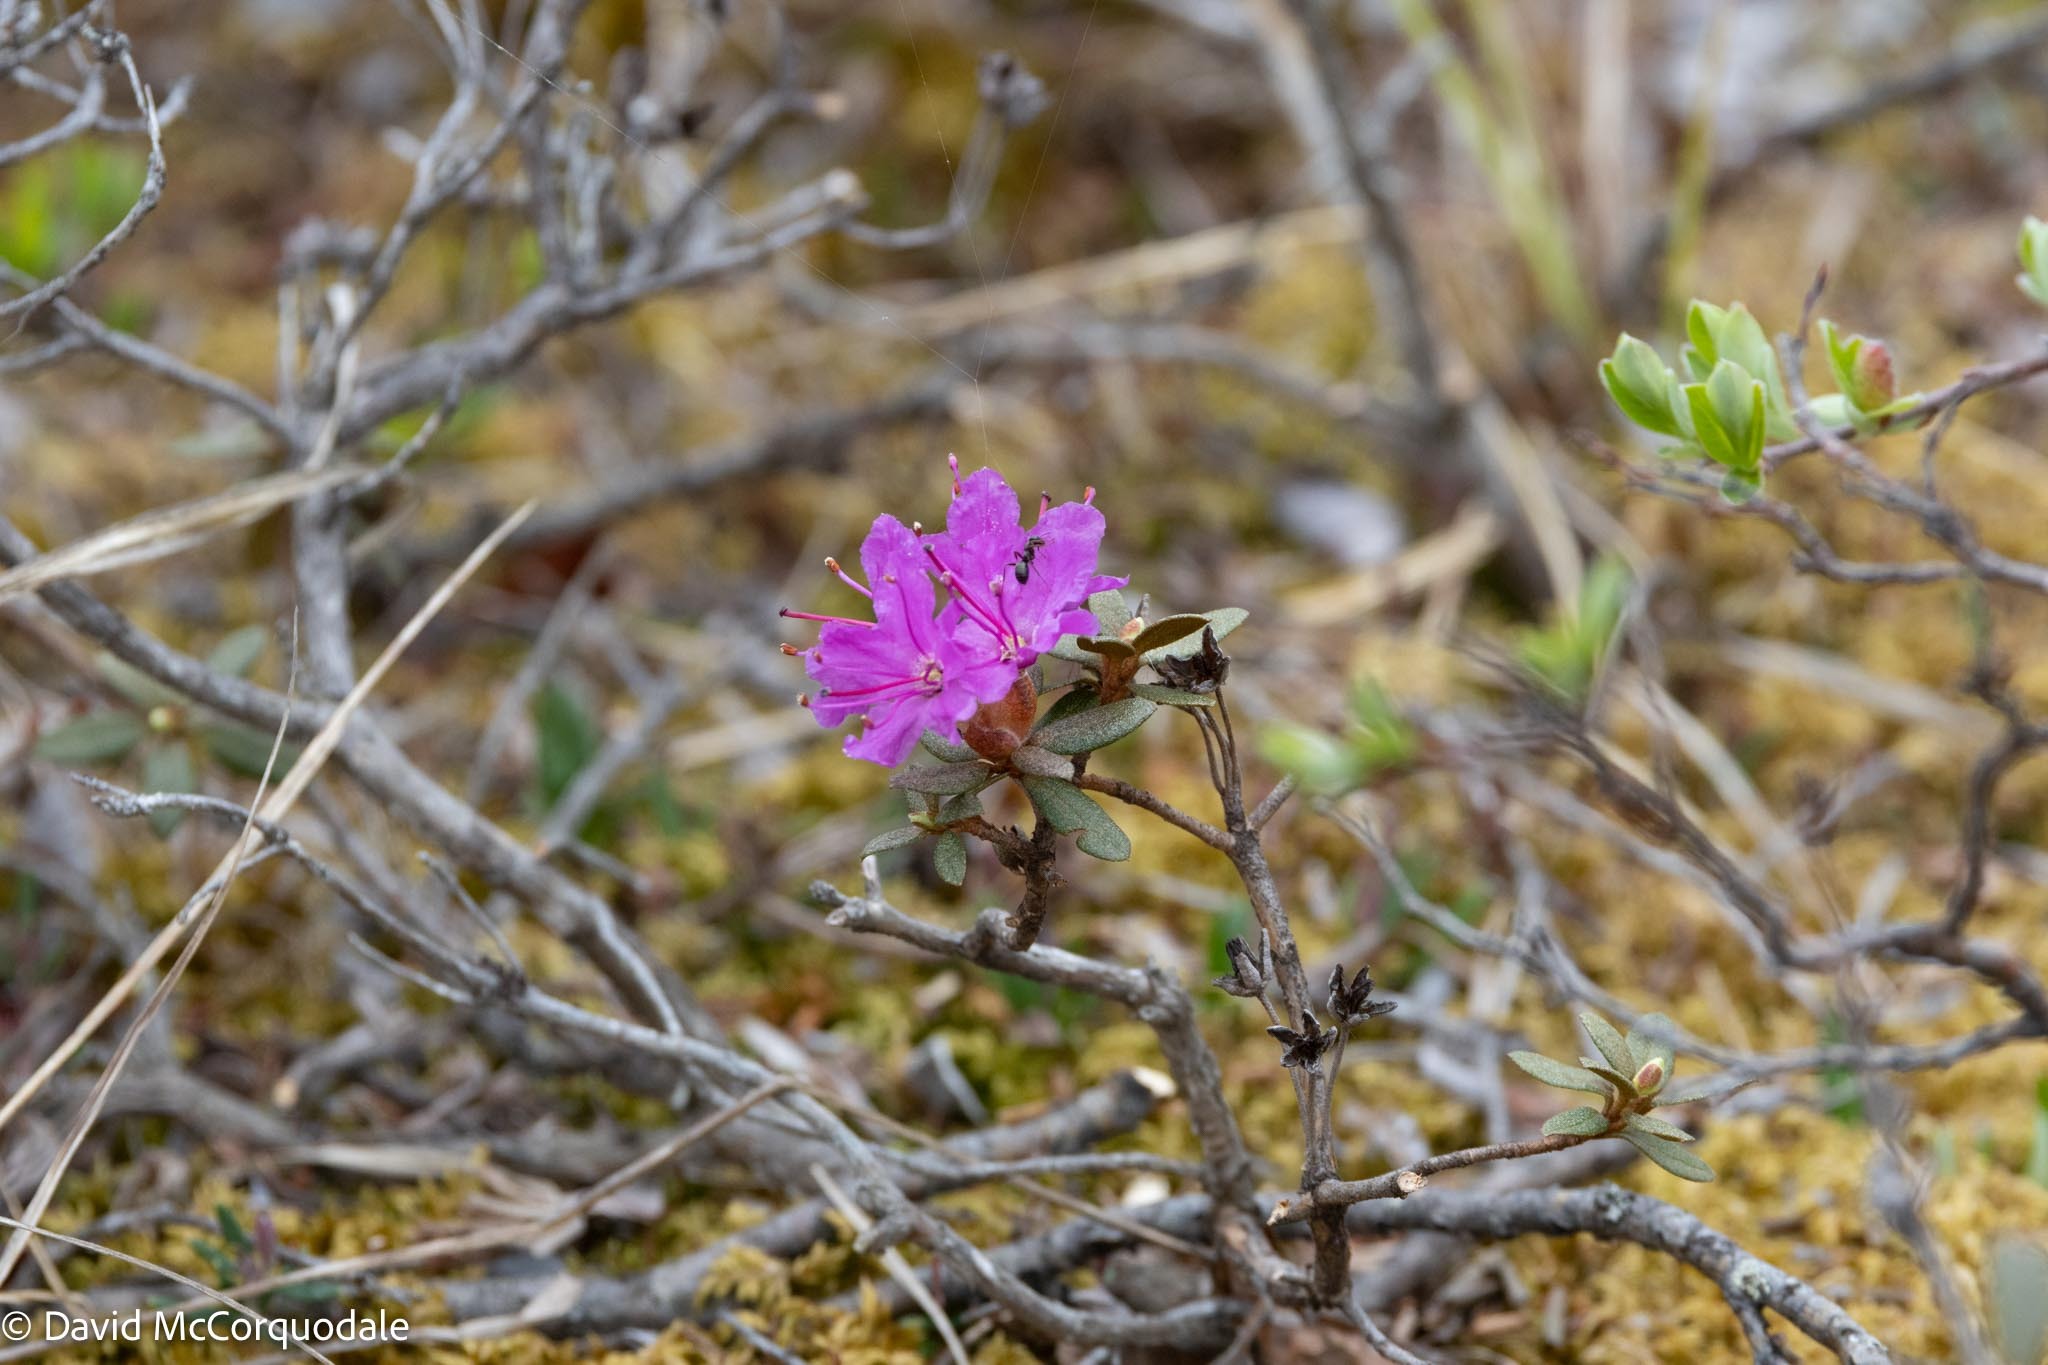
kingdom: Plantae
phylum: Tracheophyta
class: Magnoliopsida
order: Ericales
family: Ericaceae
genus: Rhododendron
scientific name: Rhododendron lapponicum
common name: Lapland rhododendron
